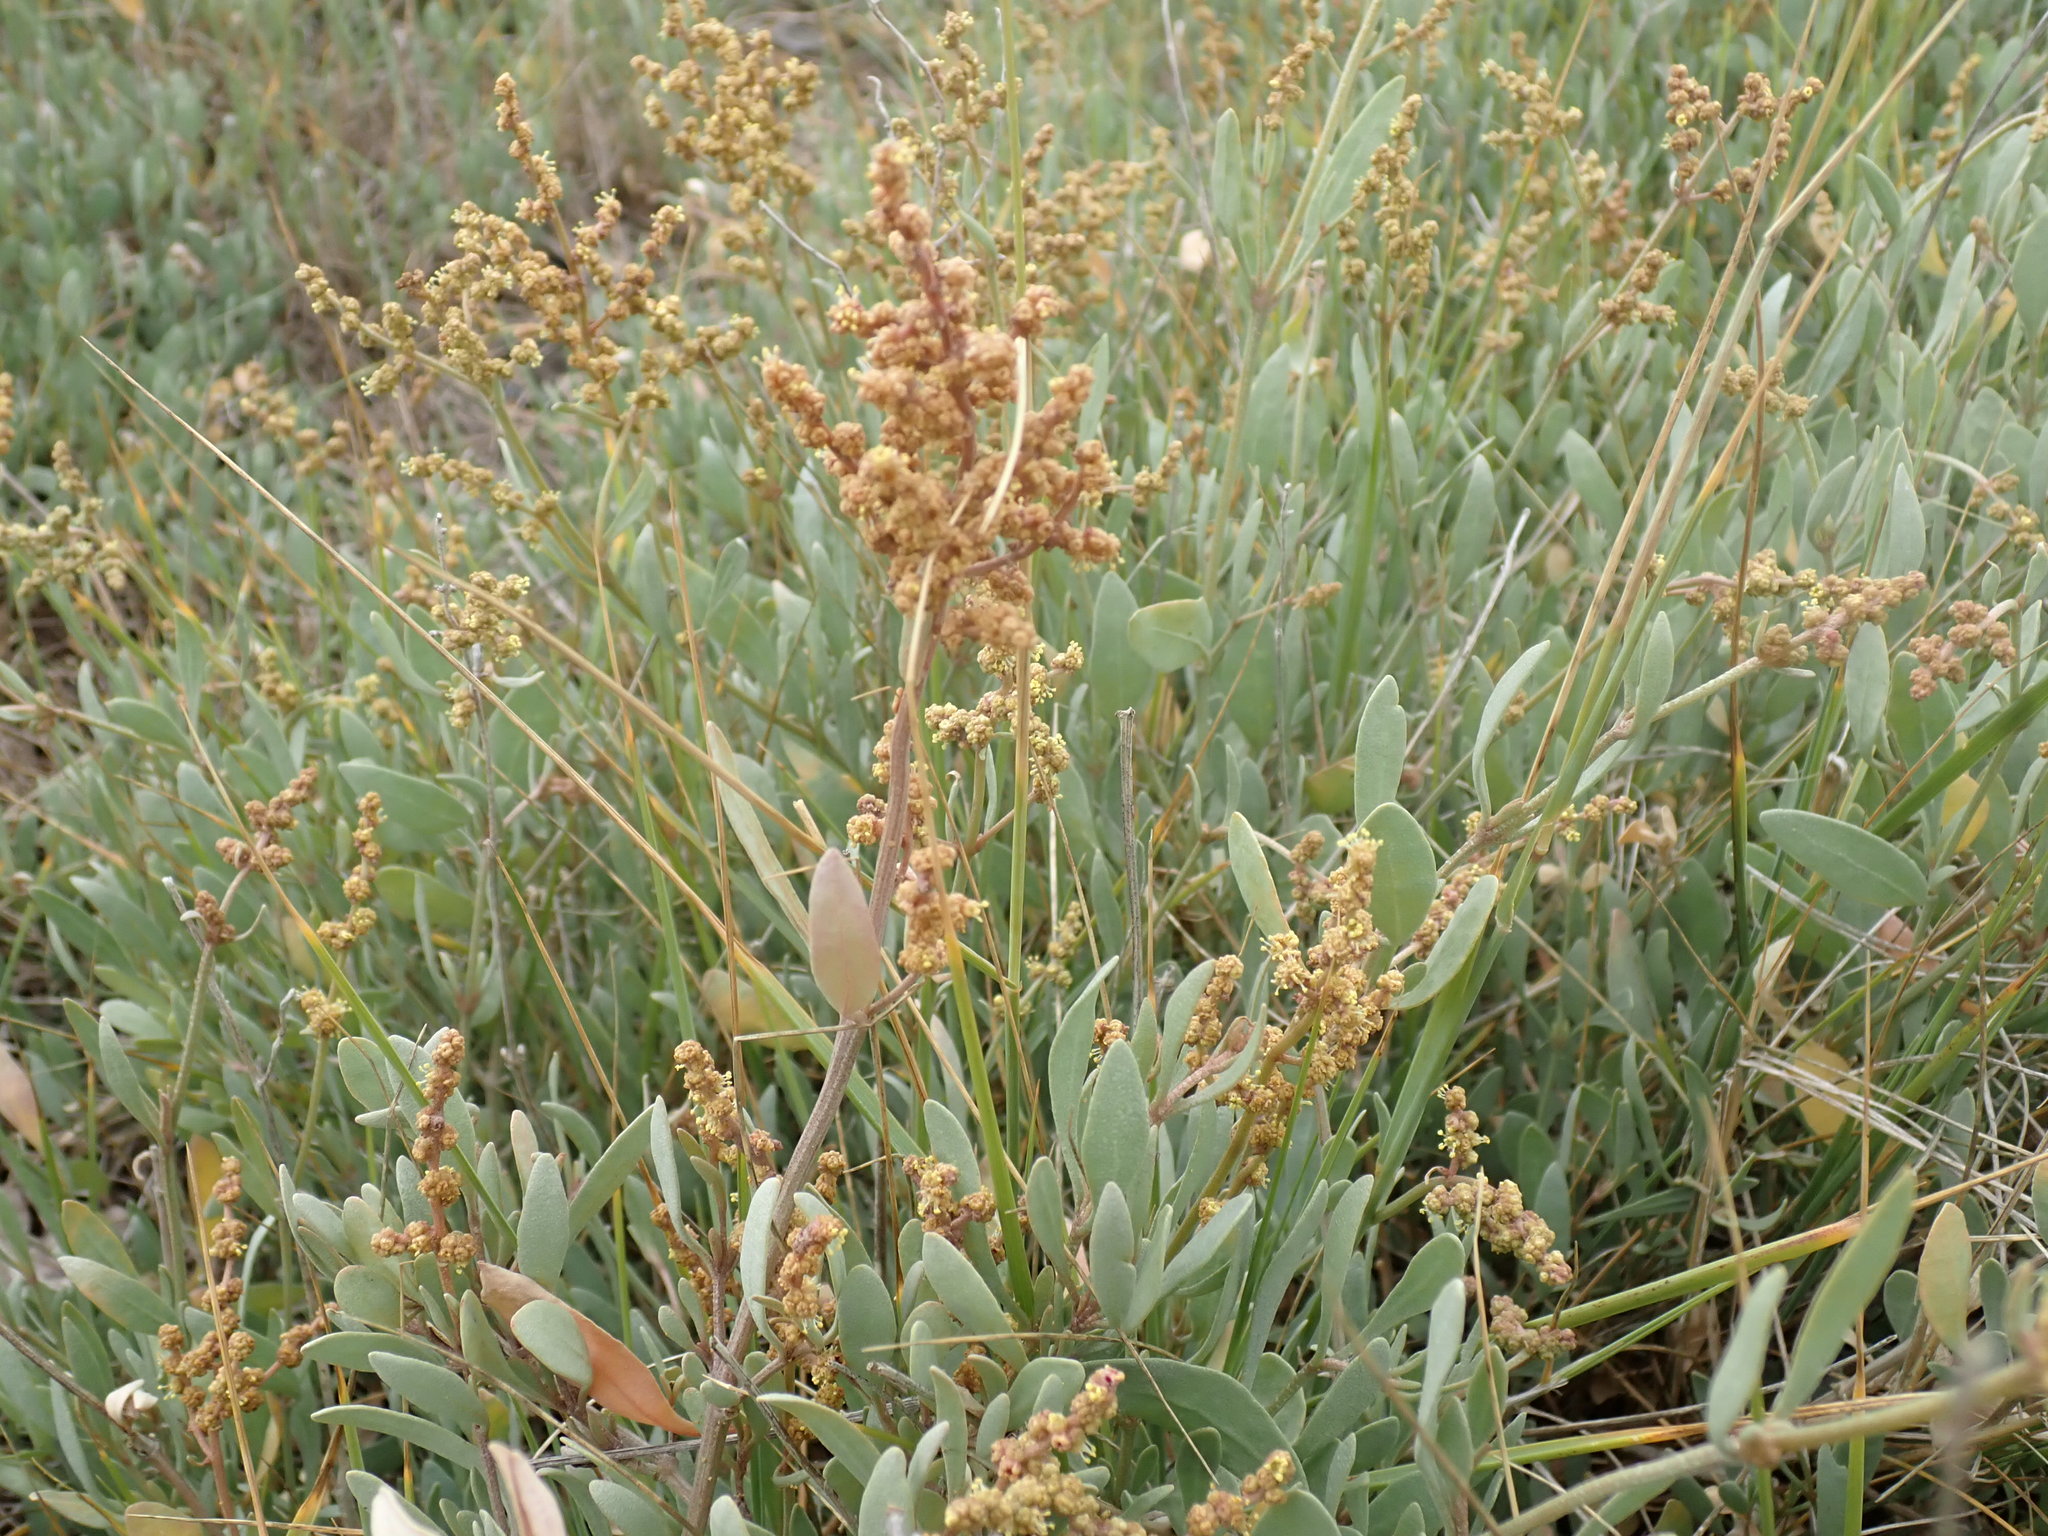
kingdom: Plantae
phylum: Tracheophyta
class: Magnoliopsida
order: Caryophyllales
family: Amaranthaceae
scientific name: Amaranthaceae
